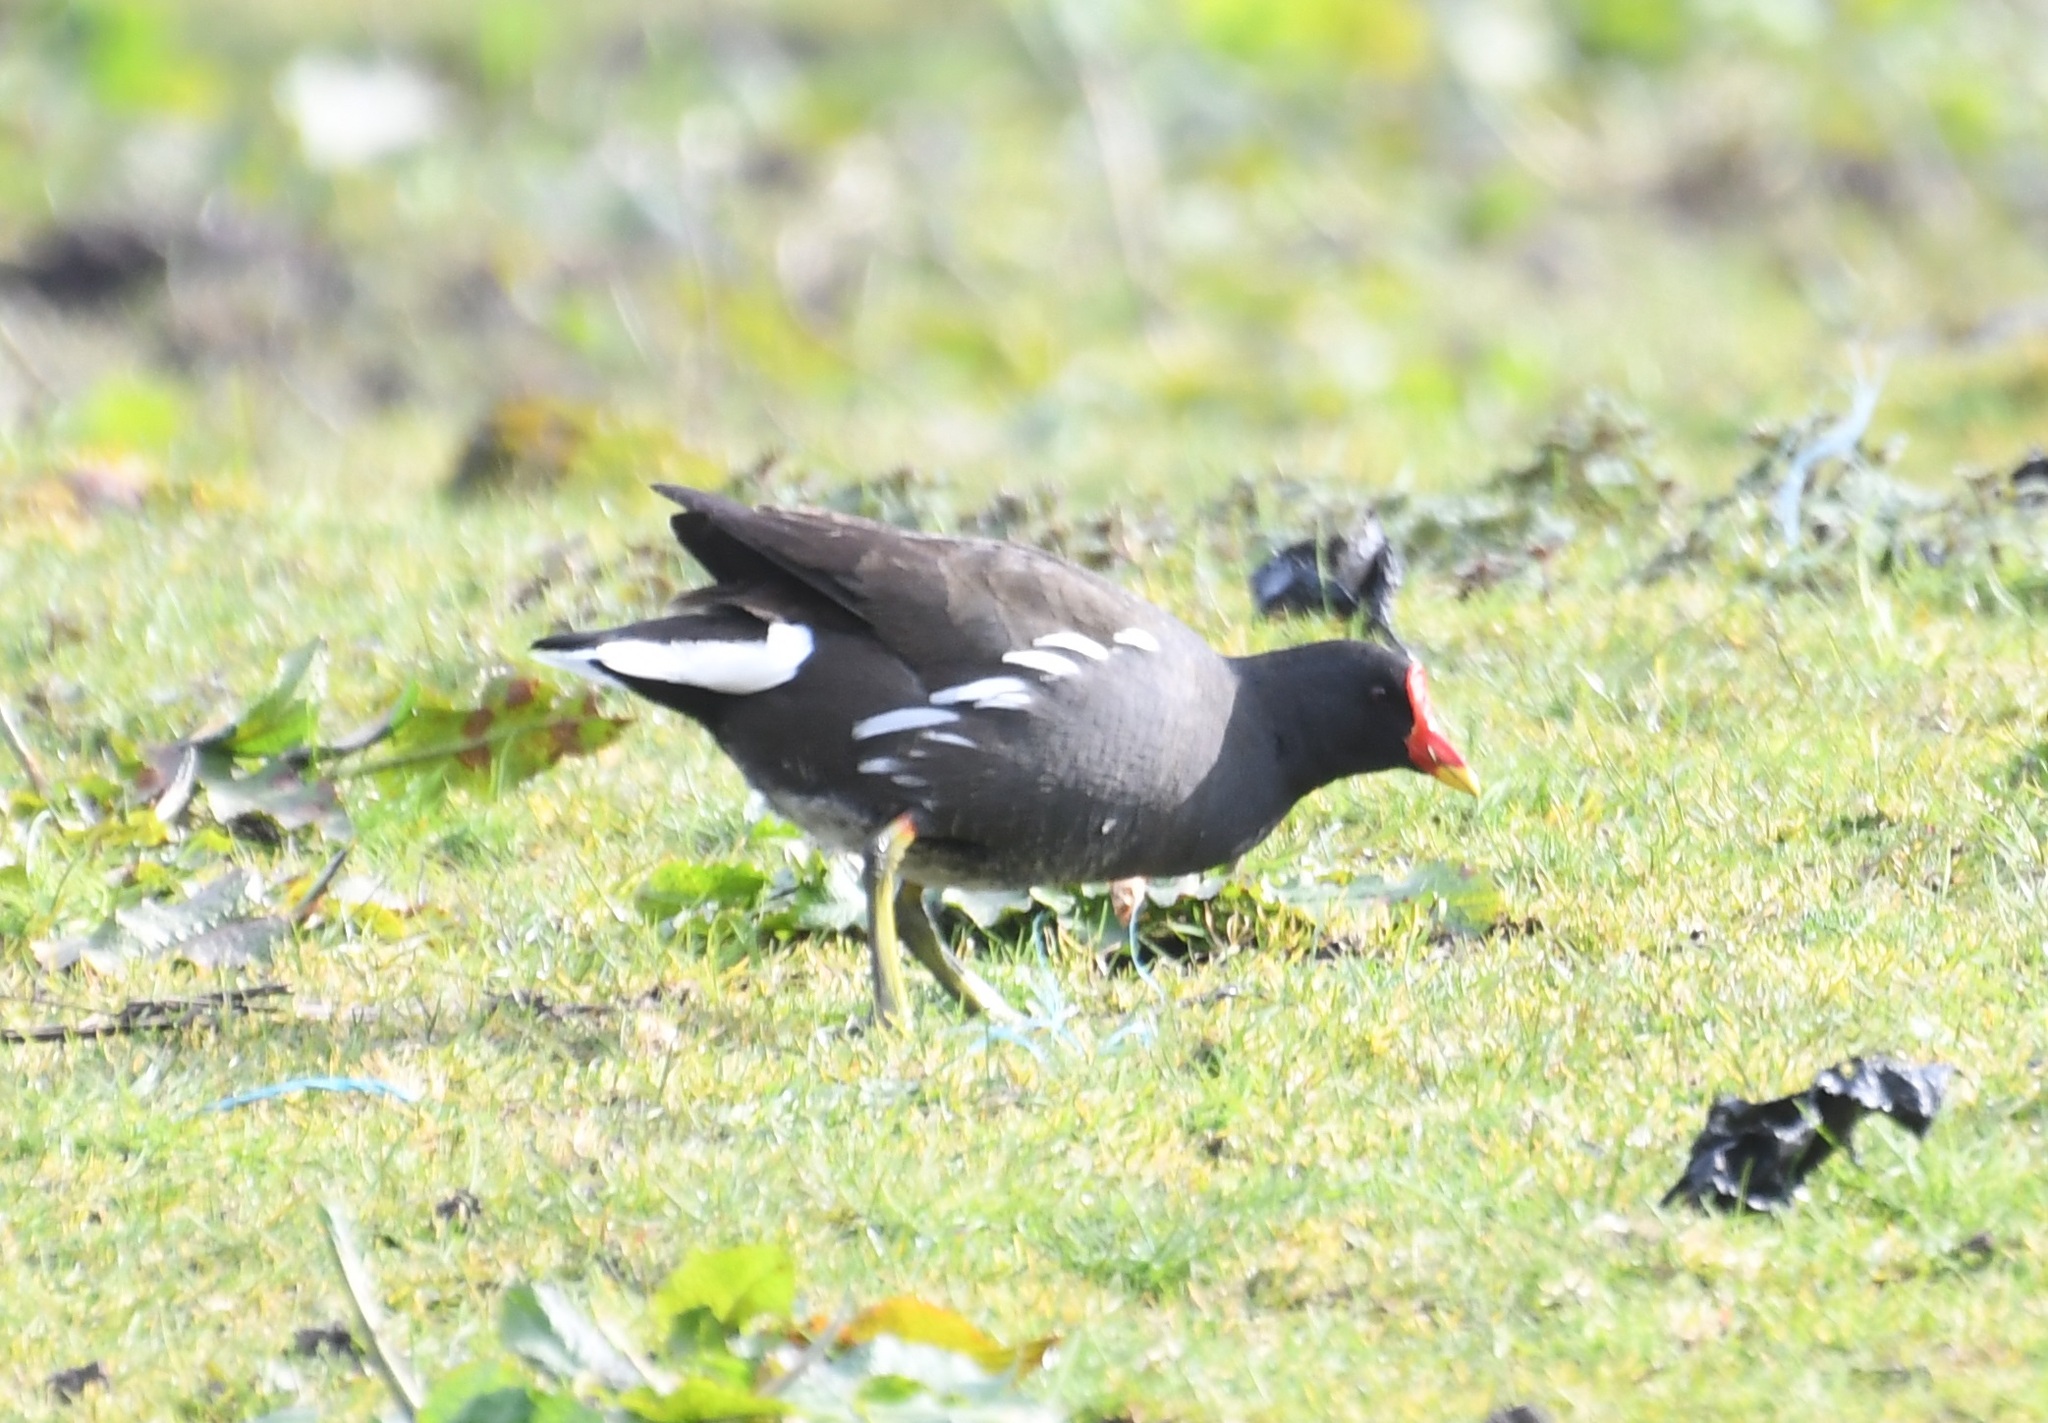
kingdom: Animalia
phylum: Chordata
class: Aves
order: Gruiformes
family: Rallidae
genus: Gallinula
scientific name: Gallinula chloropus
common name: Common moorhen
